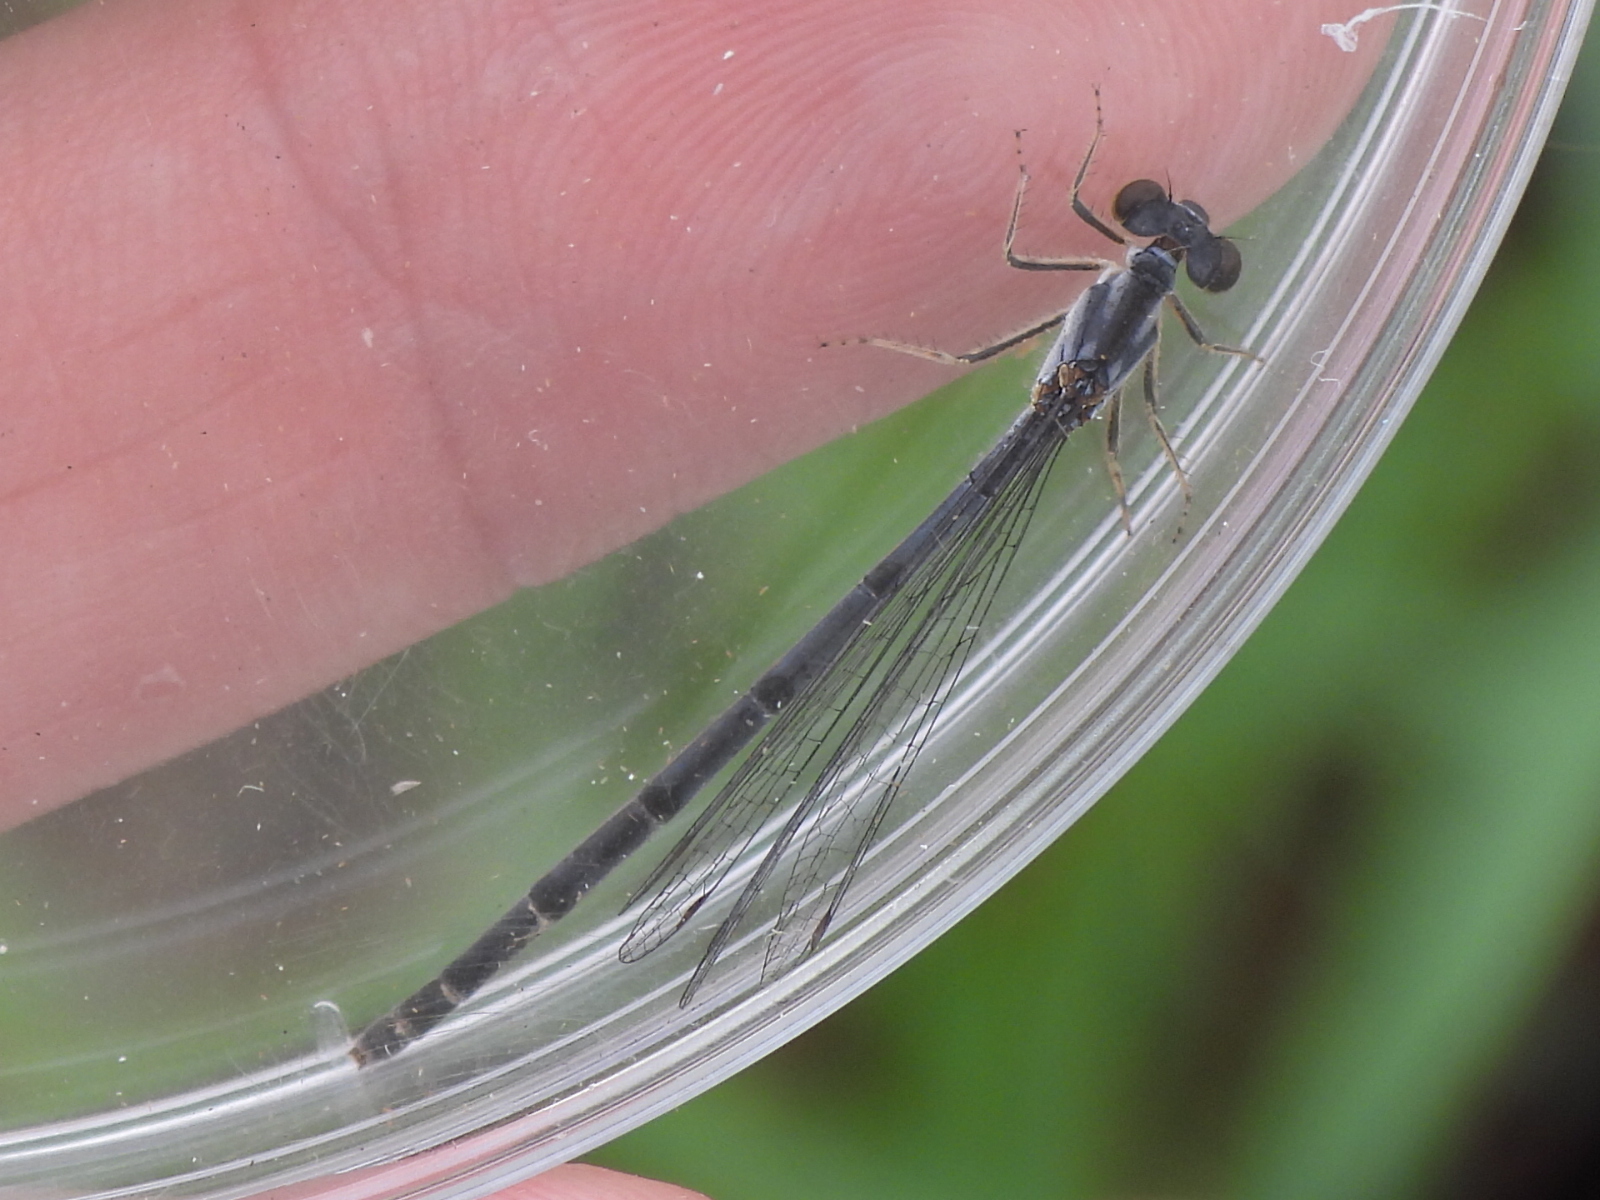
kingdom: Animalia
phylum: Arthropoda
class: Insecta
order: Odonata
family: Coenagrionidae
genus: Ischnura
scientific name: Ischnura posita
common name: Fragile forktail
